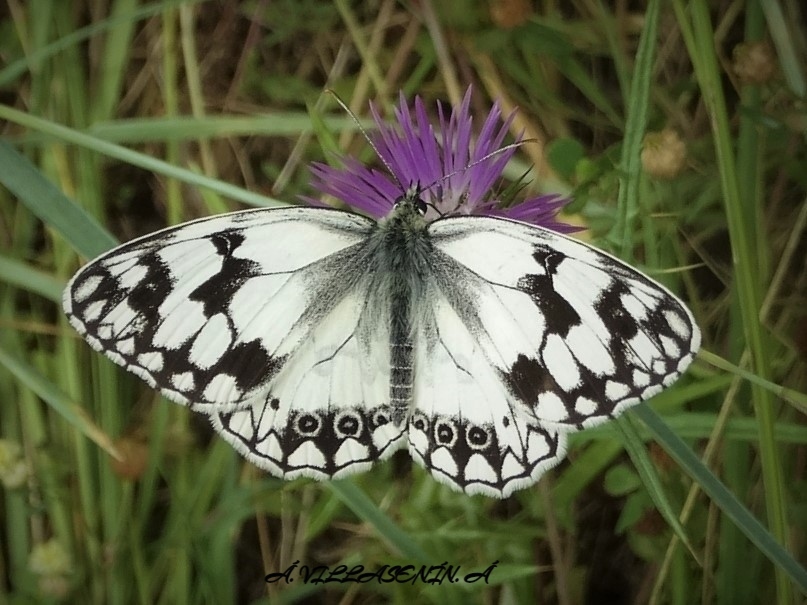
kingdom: Animalia
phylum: Arthropoda
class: Insecta
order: Lepidoptera
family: Nymphalidae
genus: Melanargia
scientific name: Melanargia lachesis
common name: Iberian marbled white
